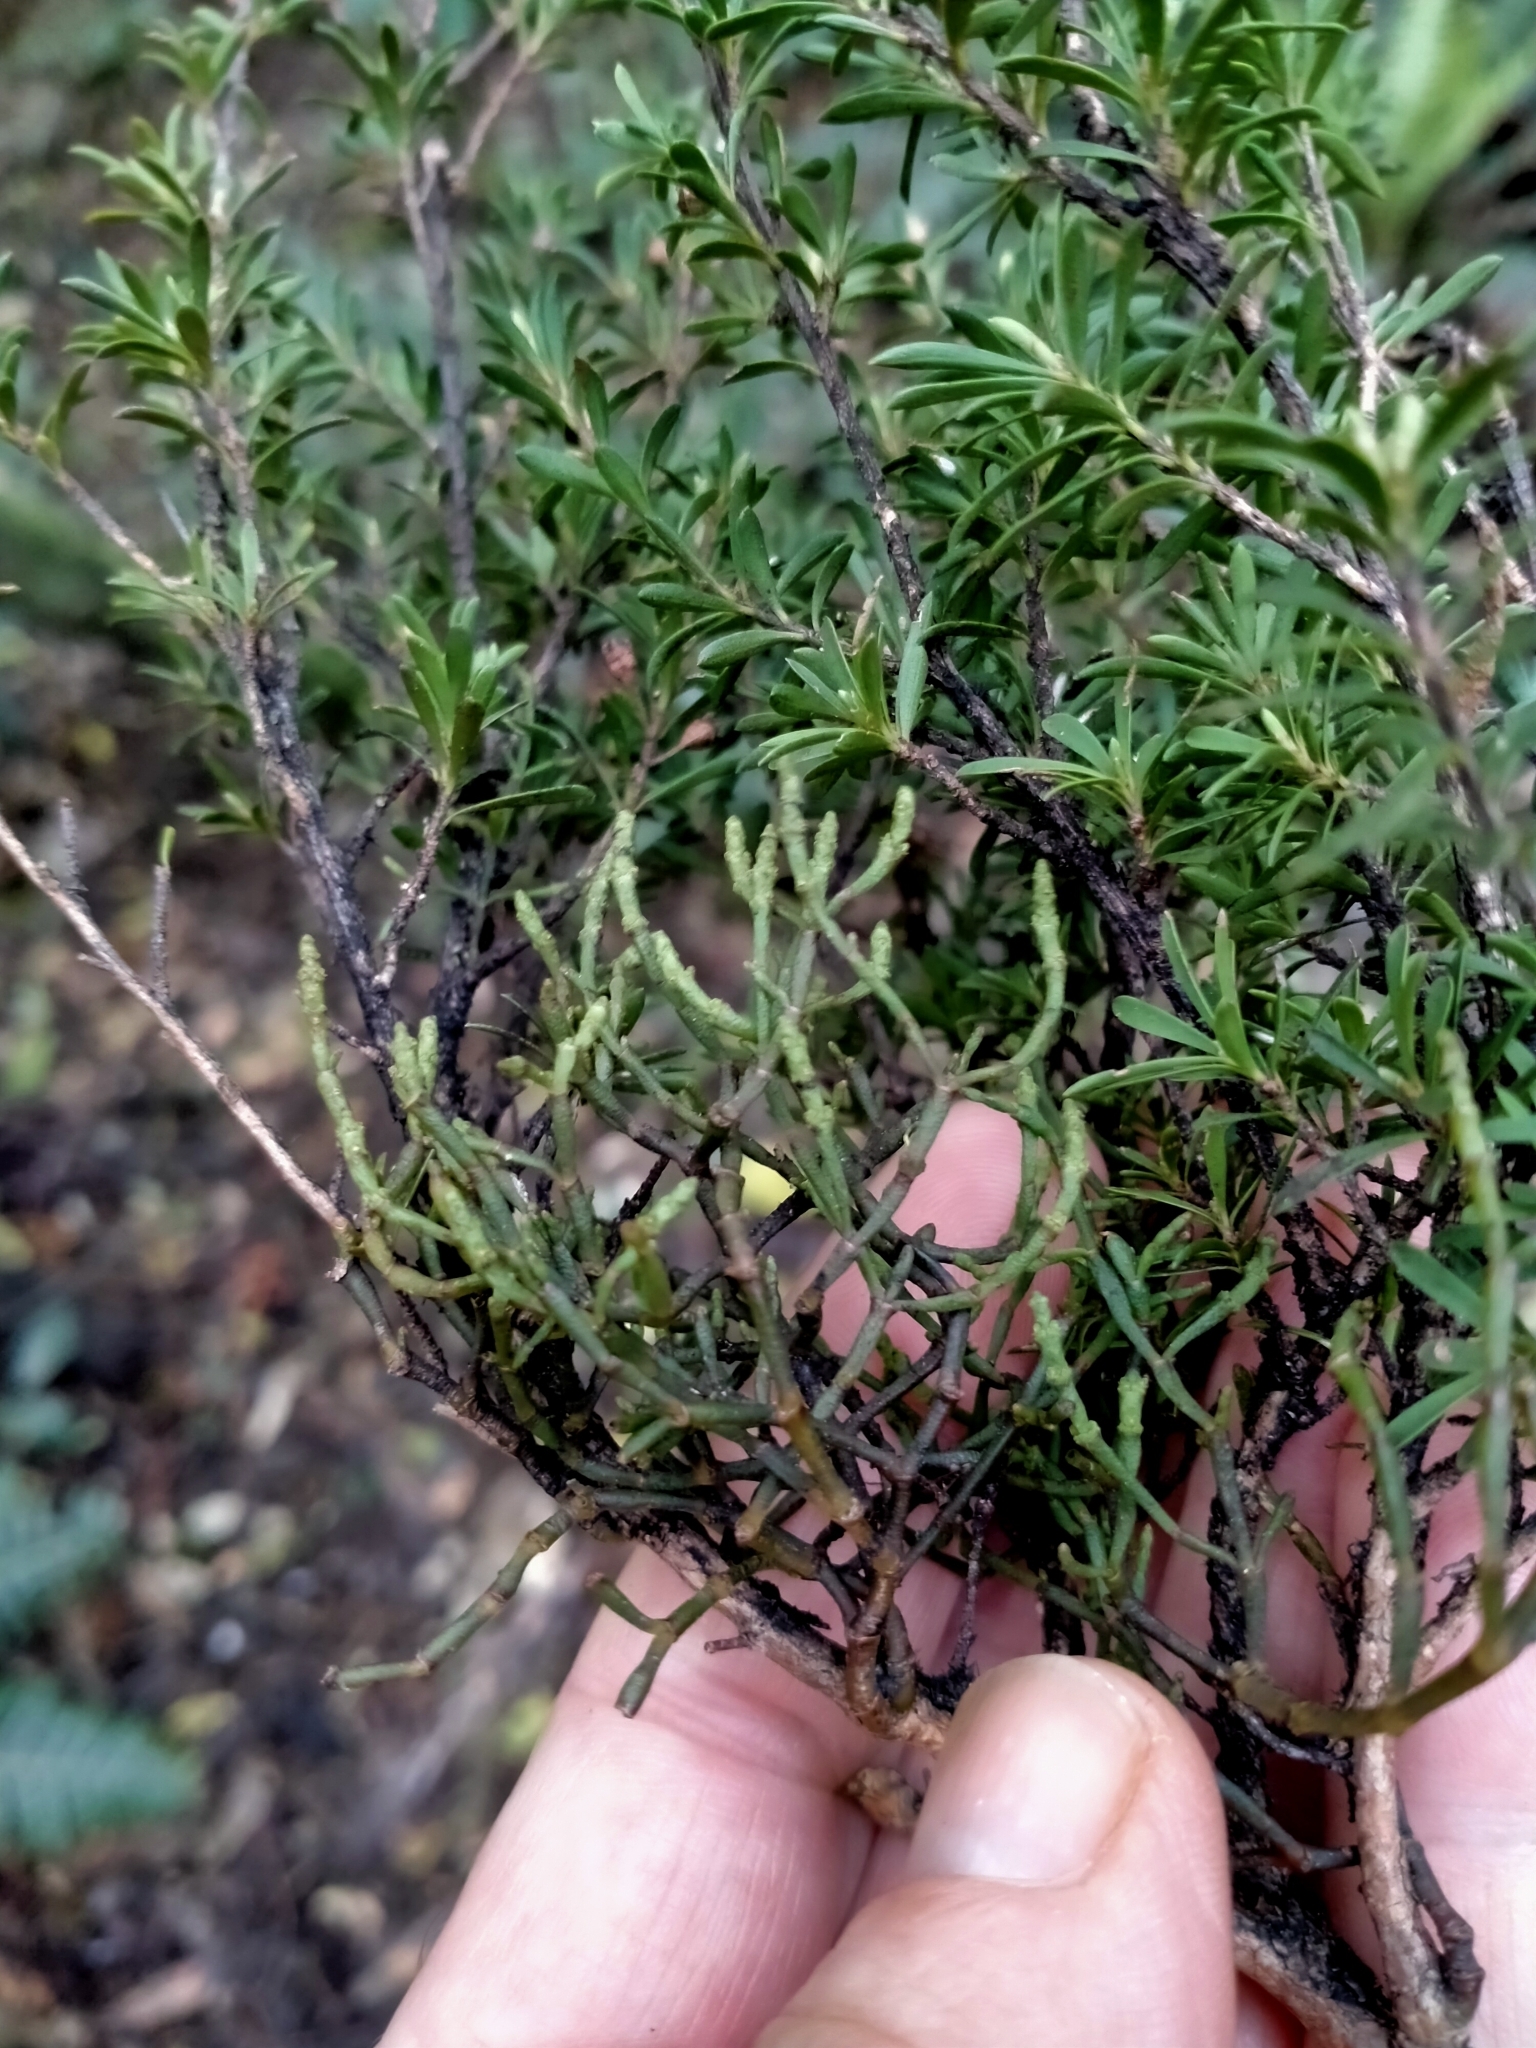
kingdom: Plantae
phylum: Tracheophyta
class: Magnoliopsida
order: Santalales
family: Viscaceae
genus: Korthalsella
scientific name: Korthalsella salicornioides
